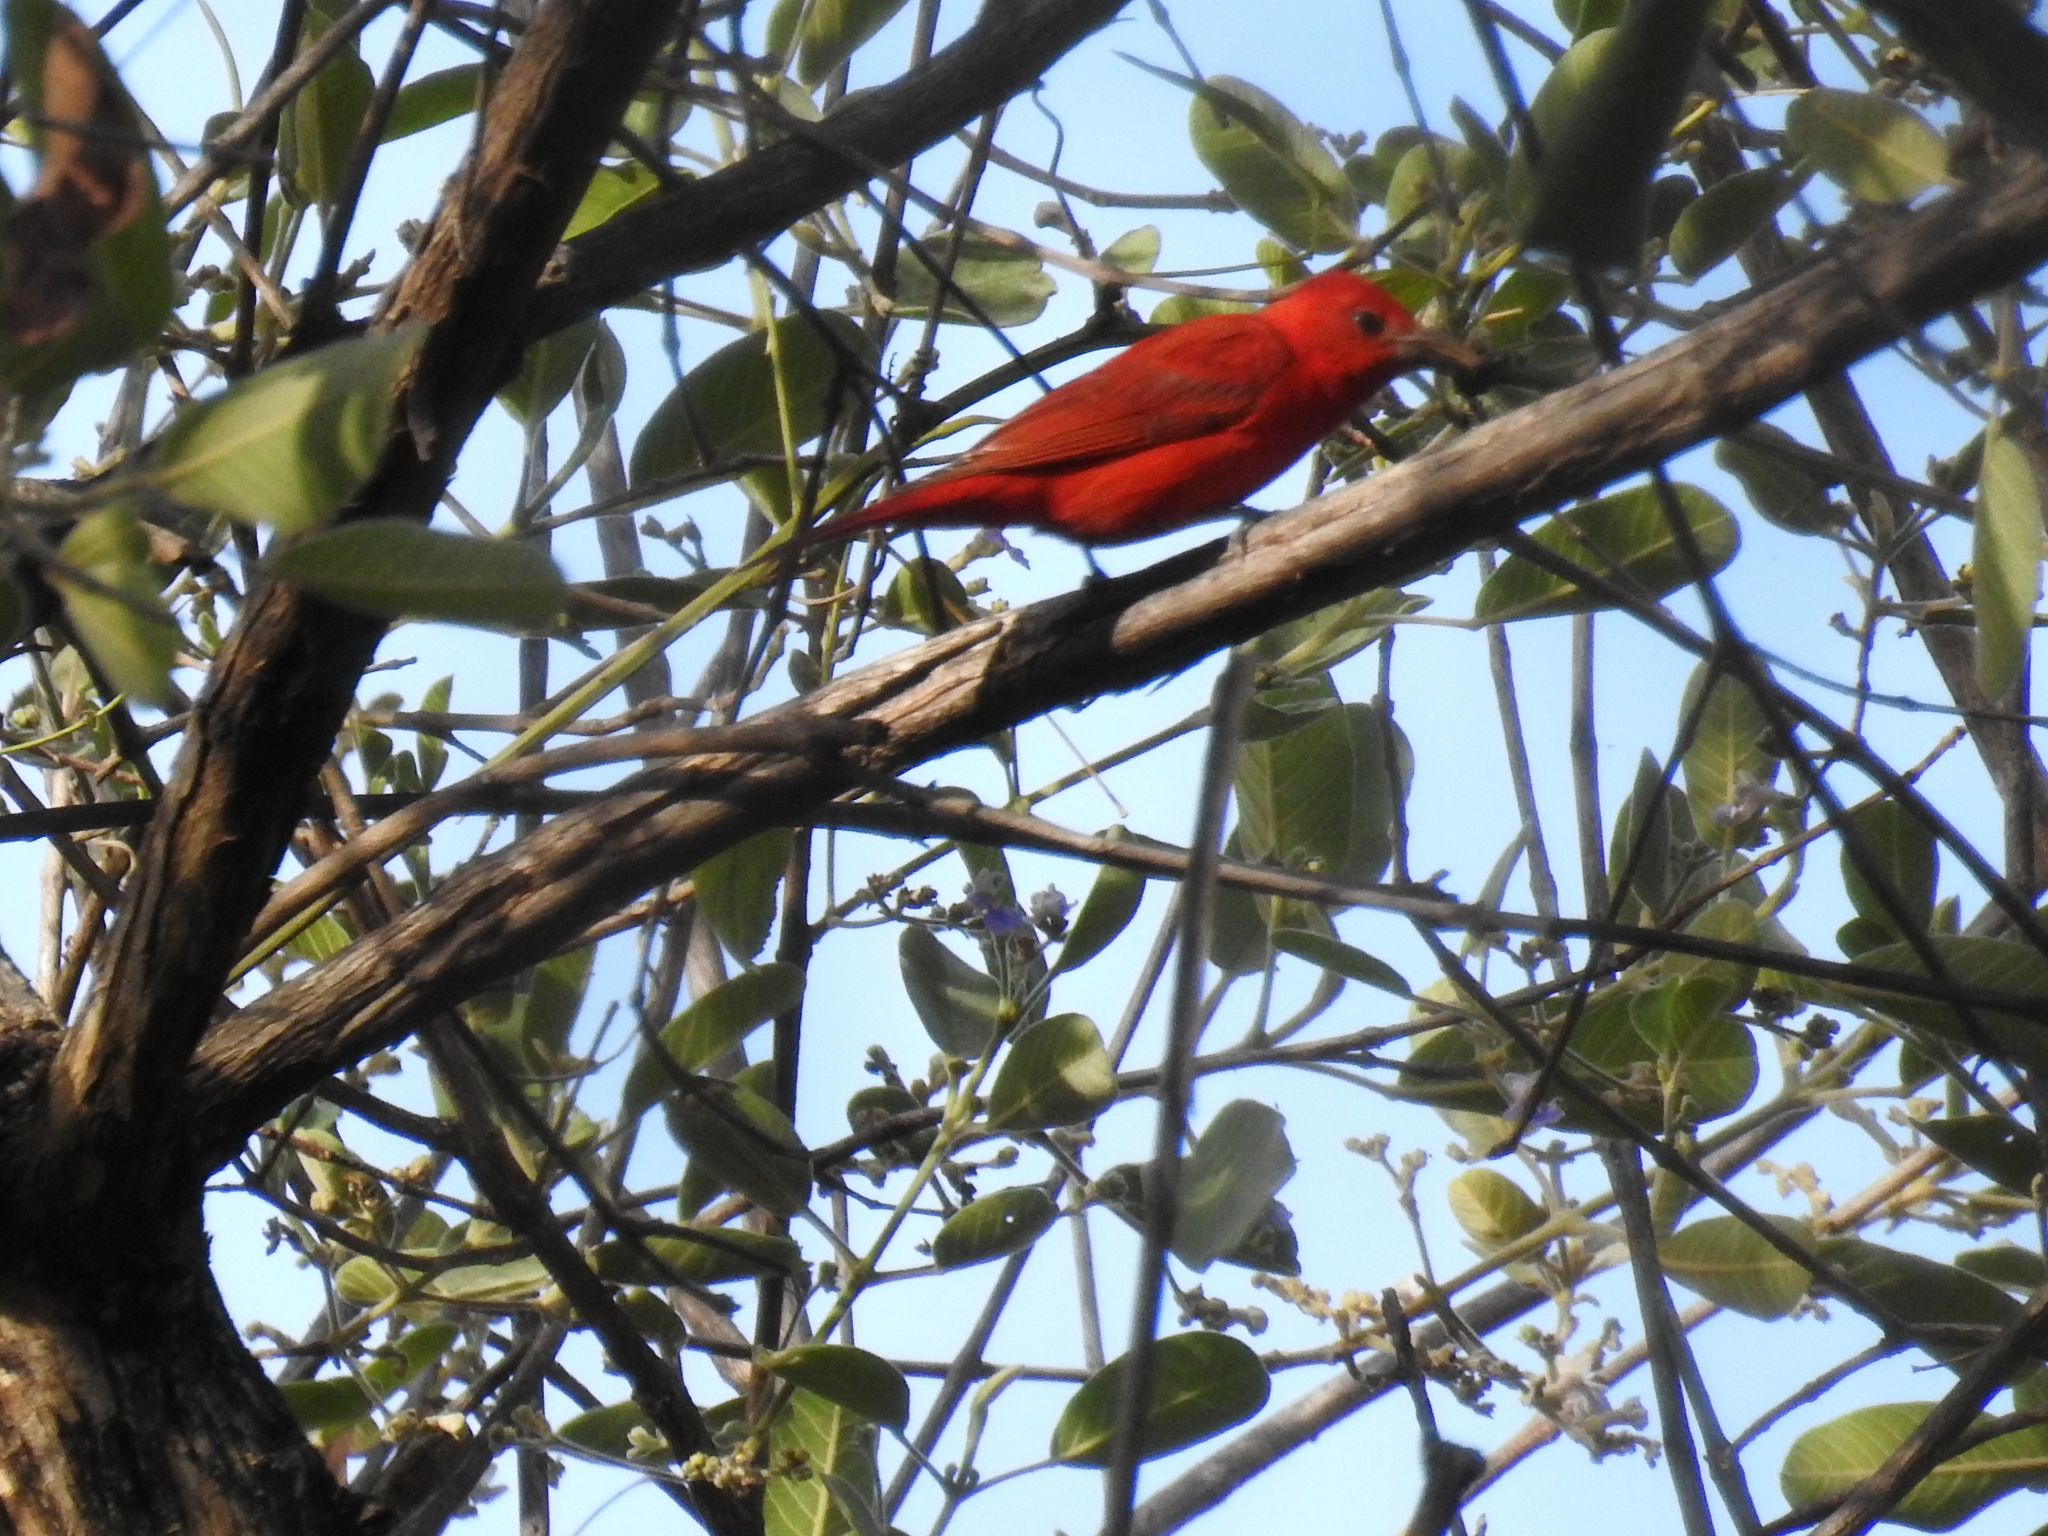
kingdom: Animalia
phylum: Chordata
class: Aves
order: Passeriformes
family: Cardinalidae
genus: Piranga
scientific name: Piranga rubra
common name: Summer tanager
